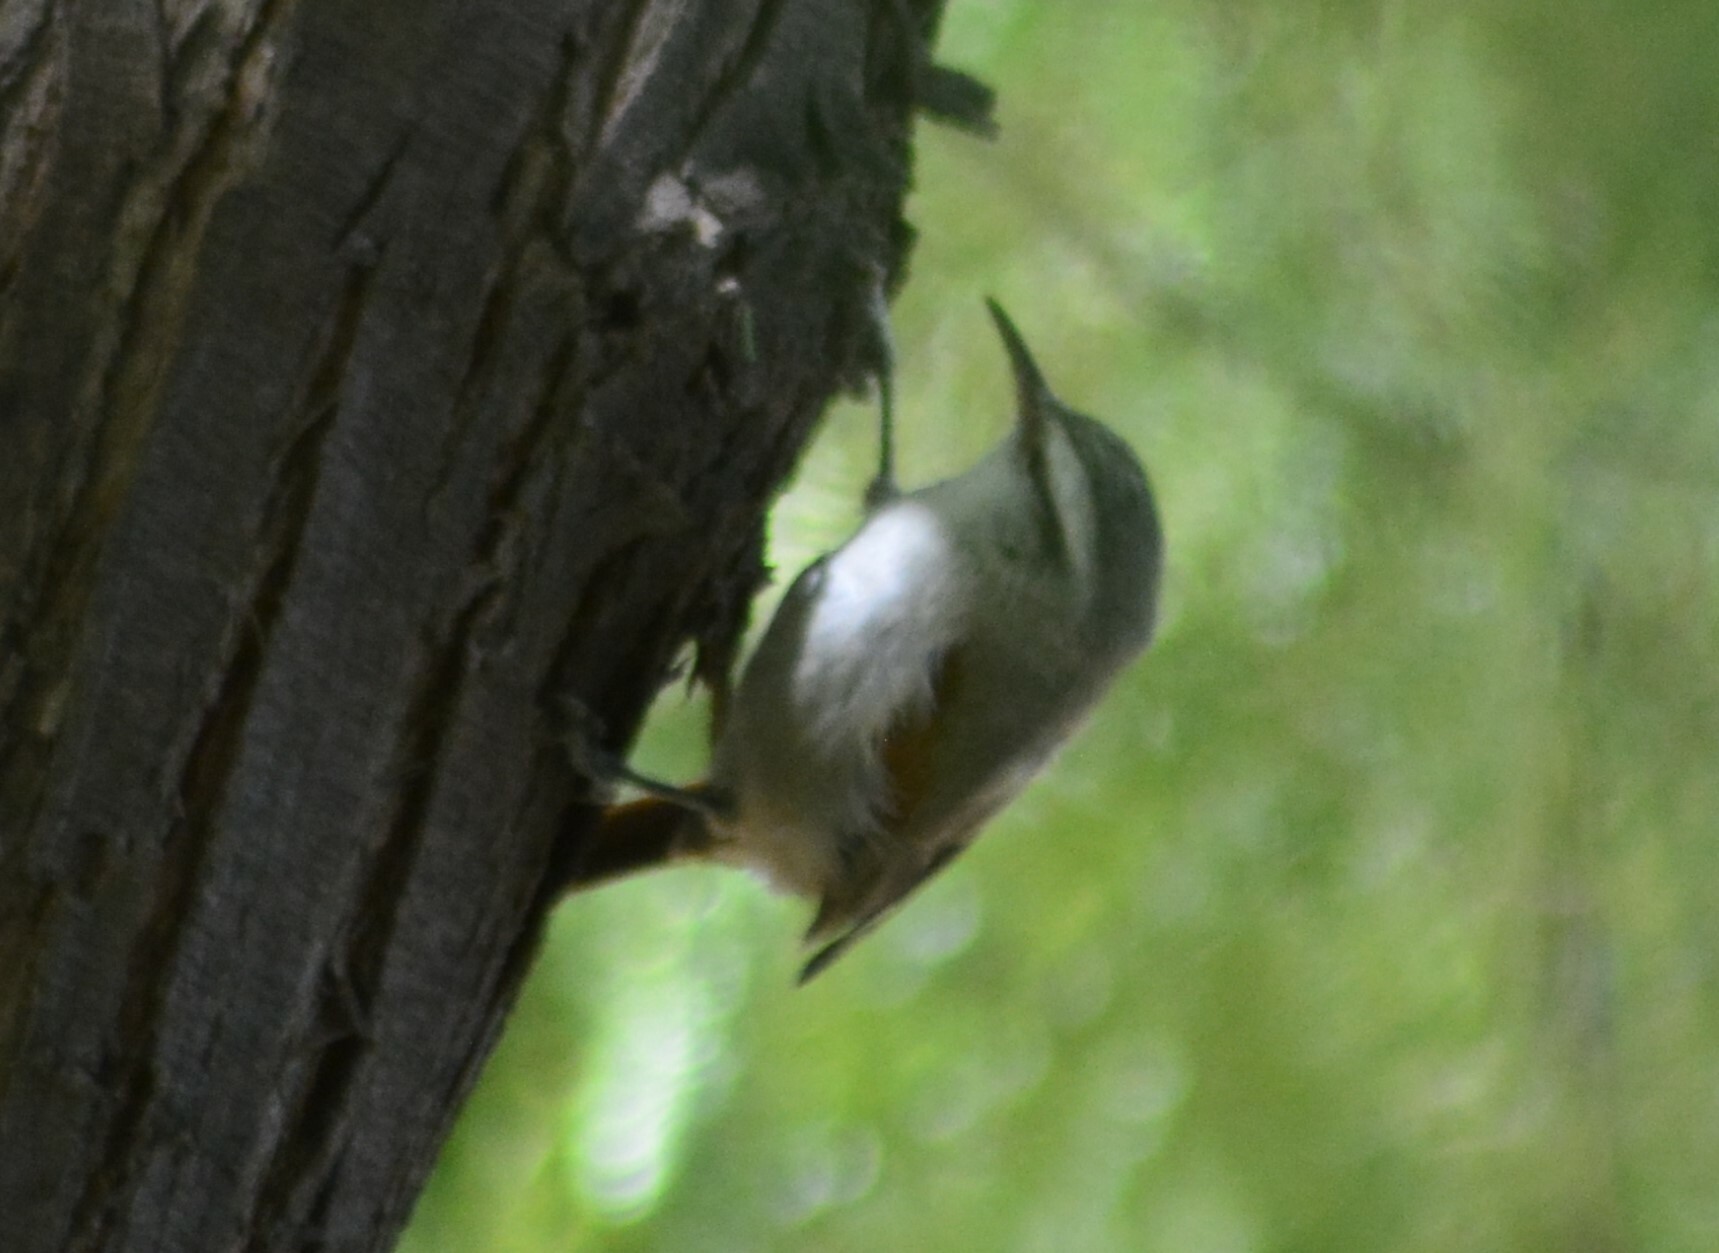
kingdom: Animalia
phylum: Chordata
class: Aves
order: Passeriformes
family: Furnariidae
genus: Cranioleuca
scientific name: Cranioleuca pyrrhophia
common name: Stripe-crowned spinetail
